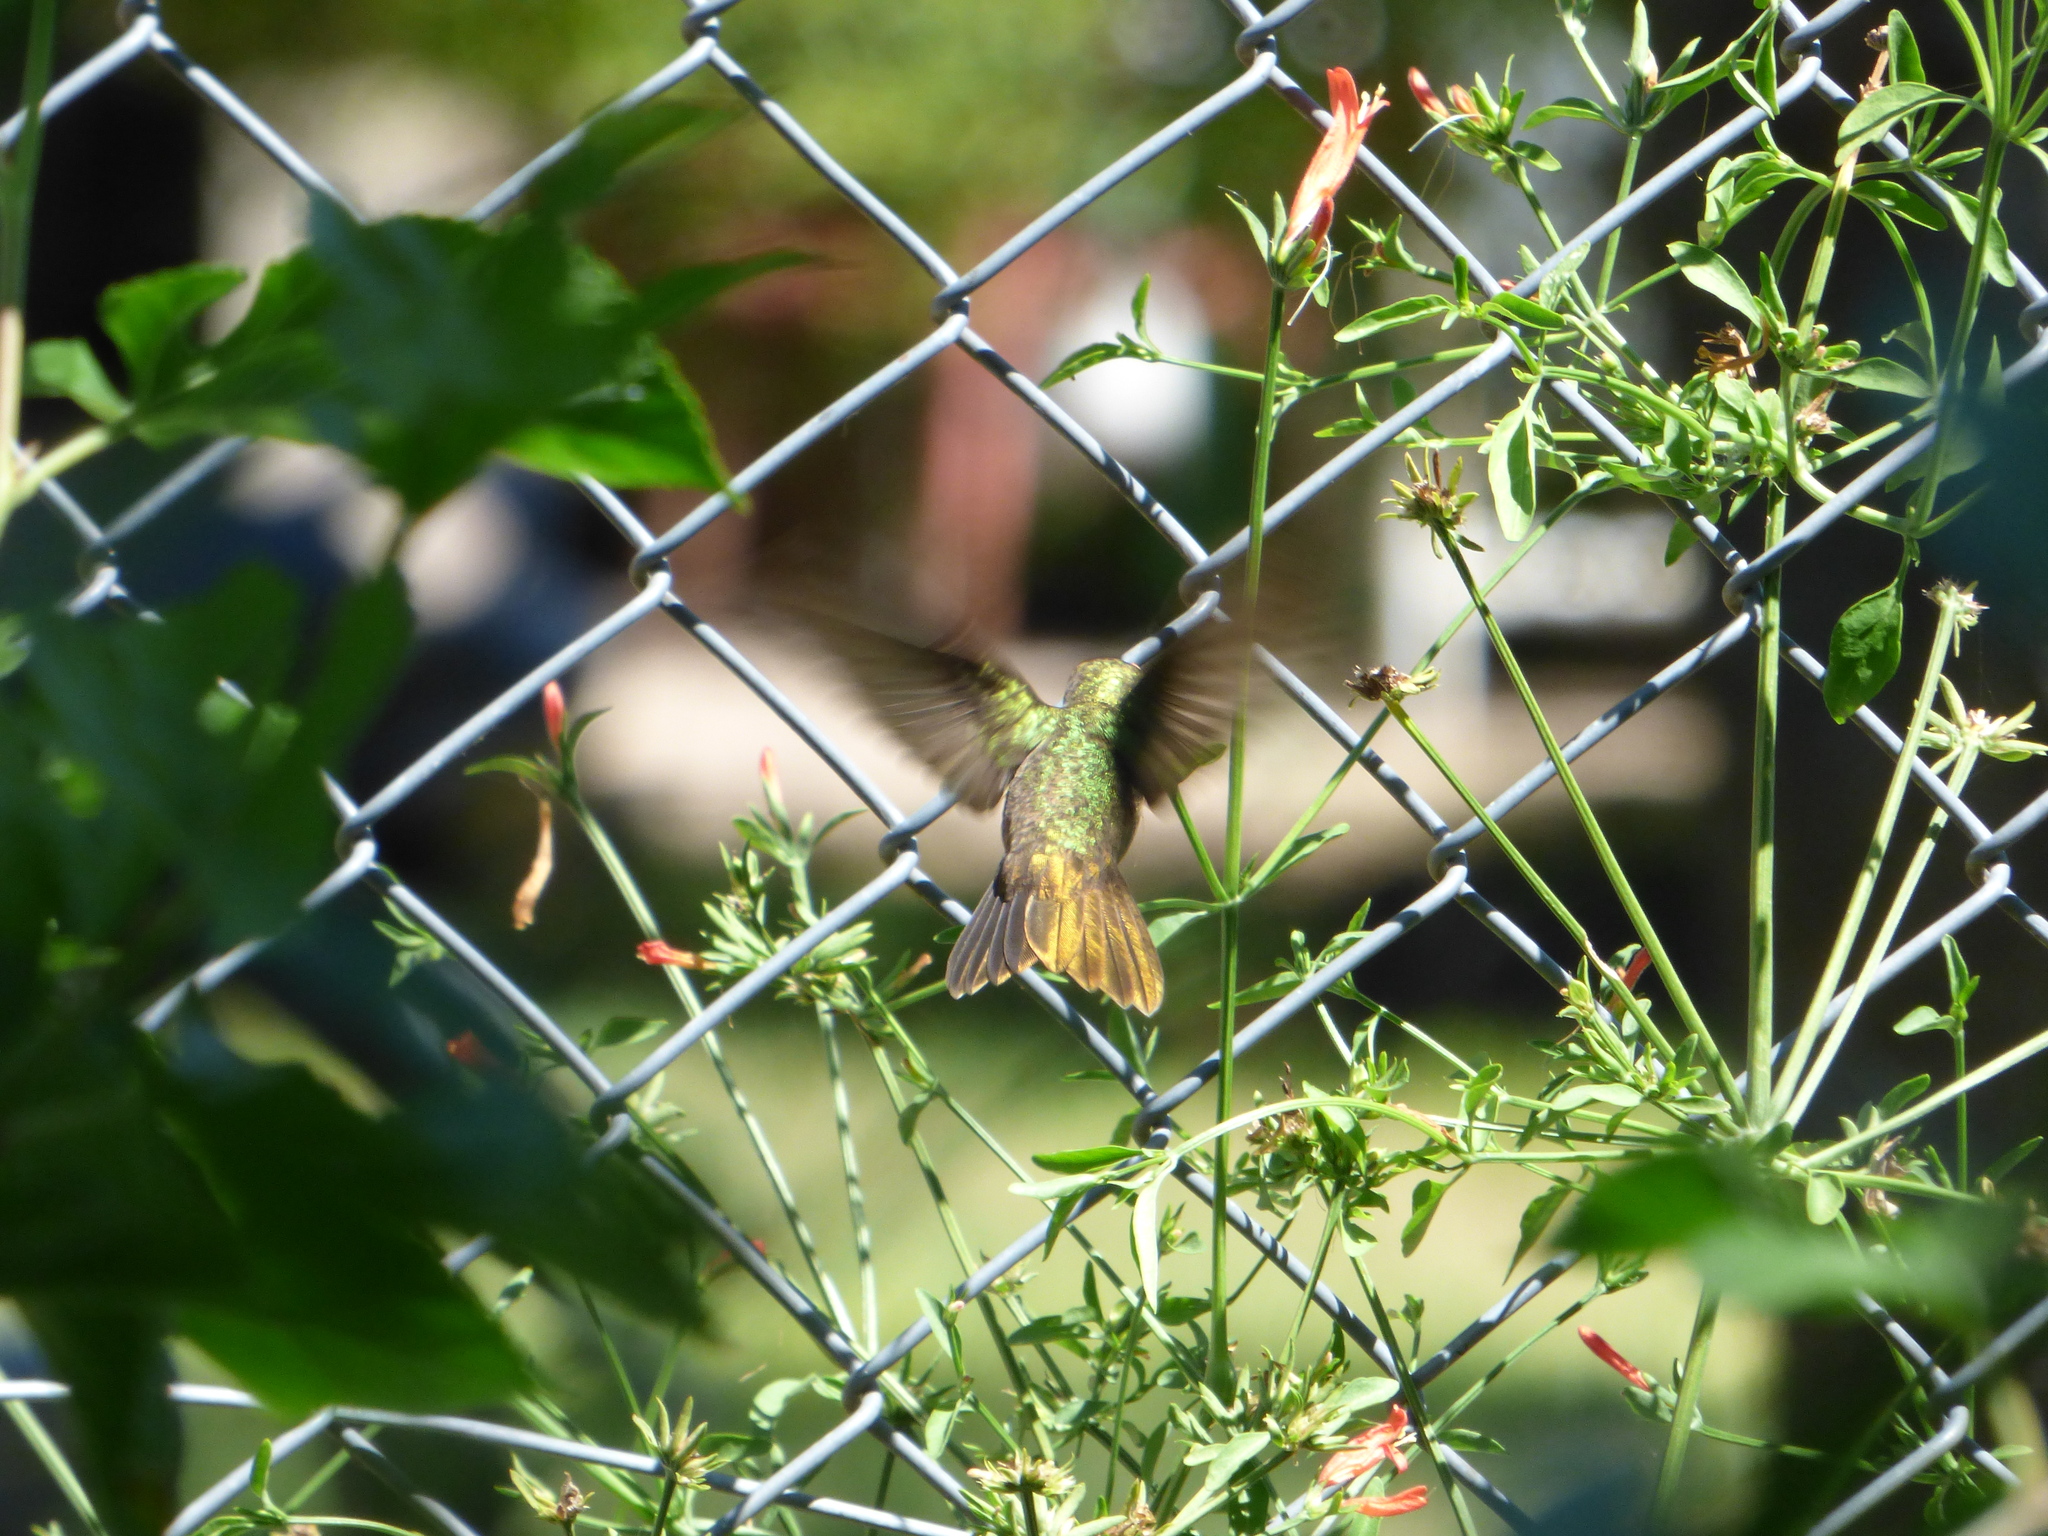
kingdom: Animalia
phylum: Chordata
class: Aves
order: Apodiformes
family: Trochilidae
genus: Hylocharis
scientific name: Hylocharis chrysura
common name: Gilded sapphire
